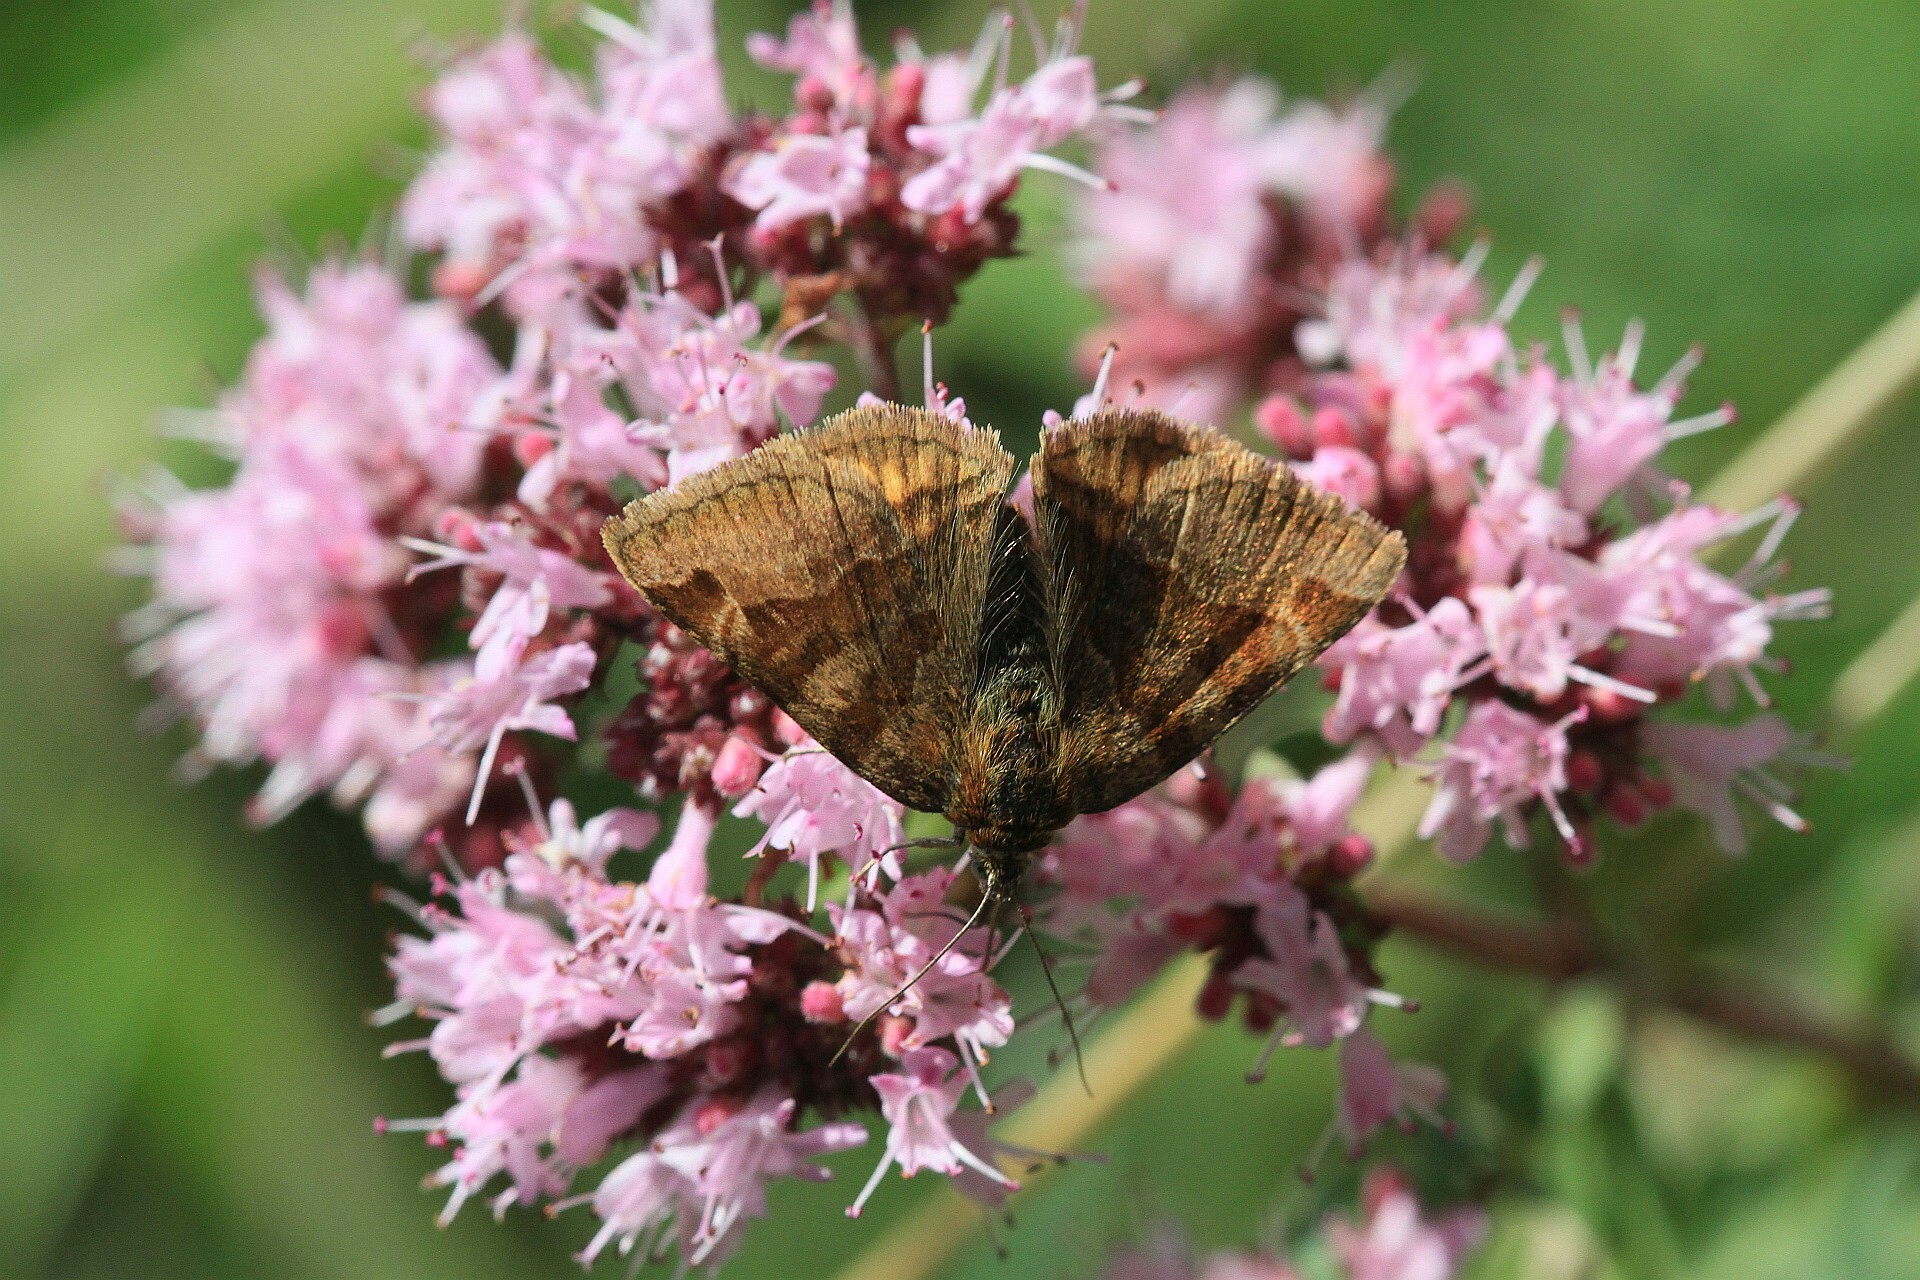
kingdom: Animalia
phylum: Arthropoda
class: Insecta
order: Lepidoptera
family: Erebidae
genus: Euclidia
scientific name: Euclidia glyphica
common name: Burnet companion
